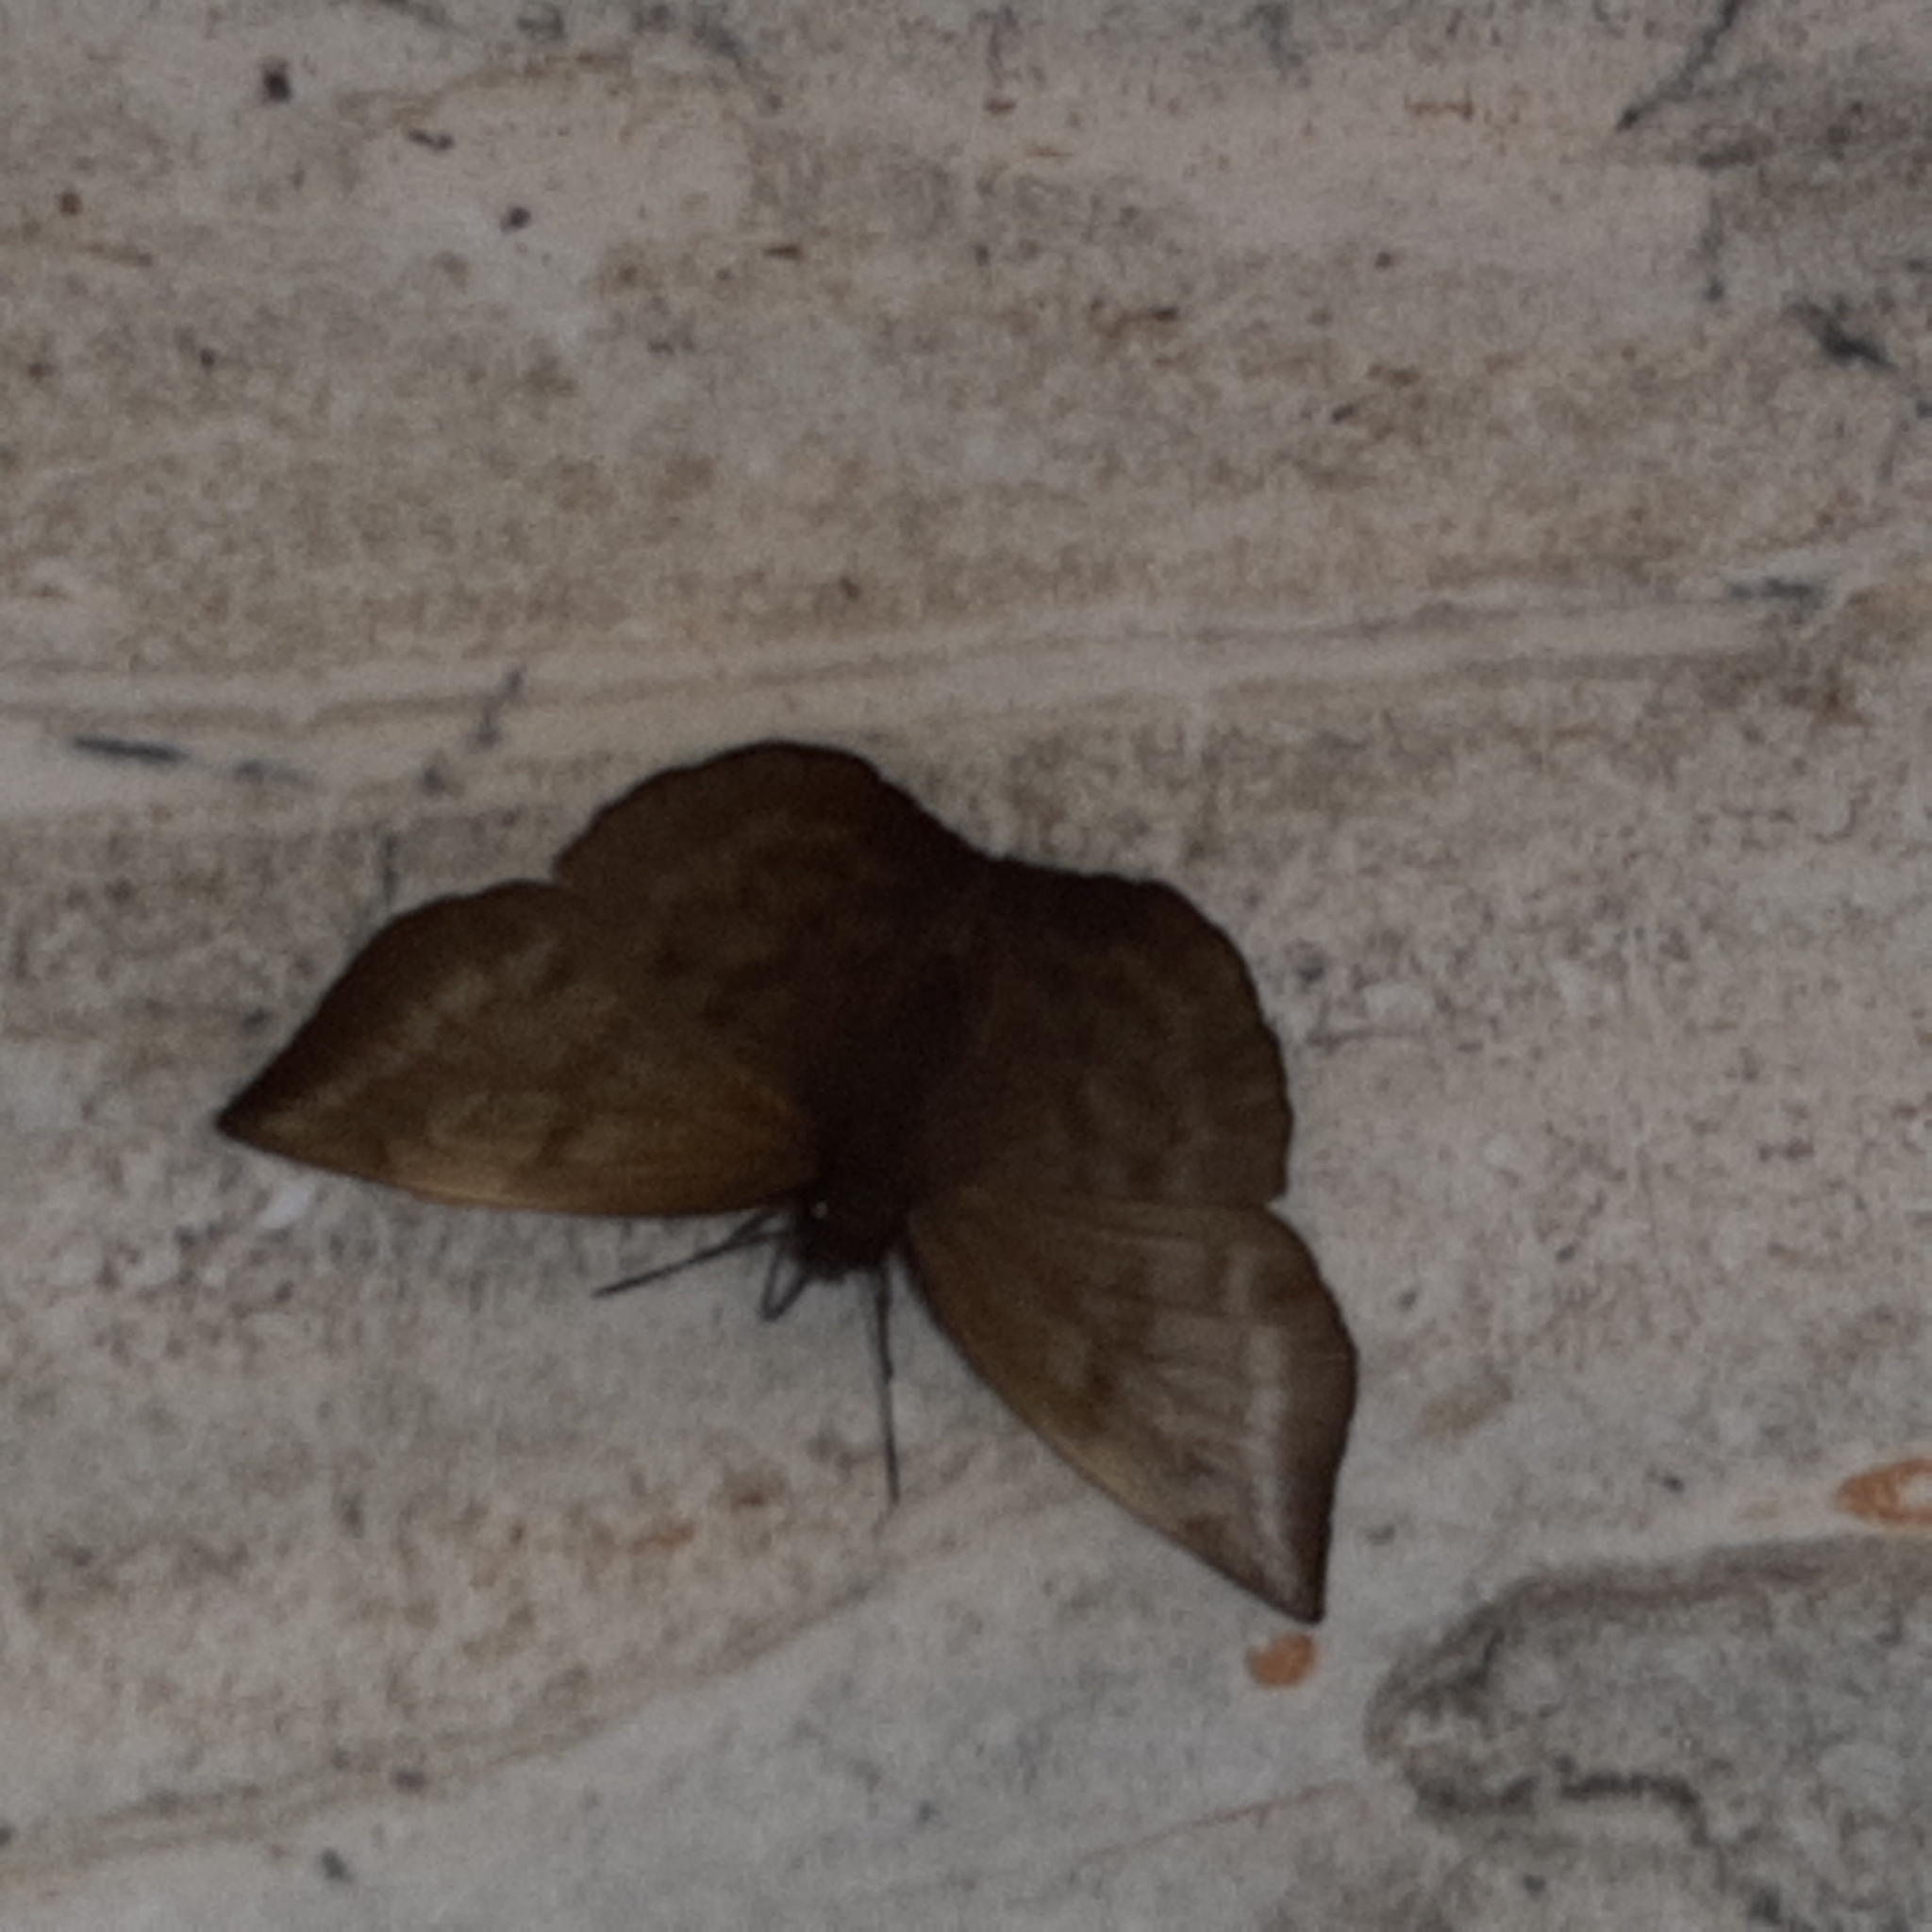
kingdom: Animalia
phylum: Arthropoda
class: Insecta
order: Lepidoptera
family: Hesperiidae
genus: Achlyodes
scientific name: Achlyodes pallida
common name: Pale sicklewing
